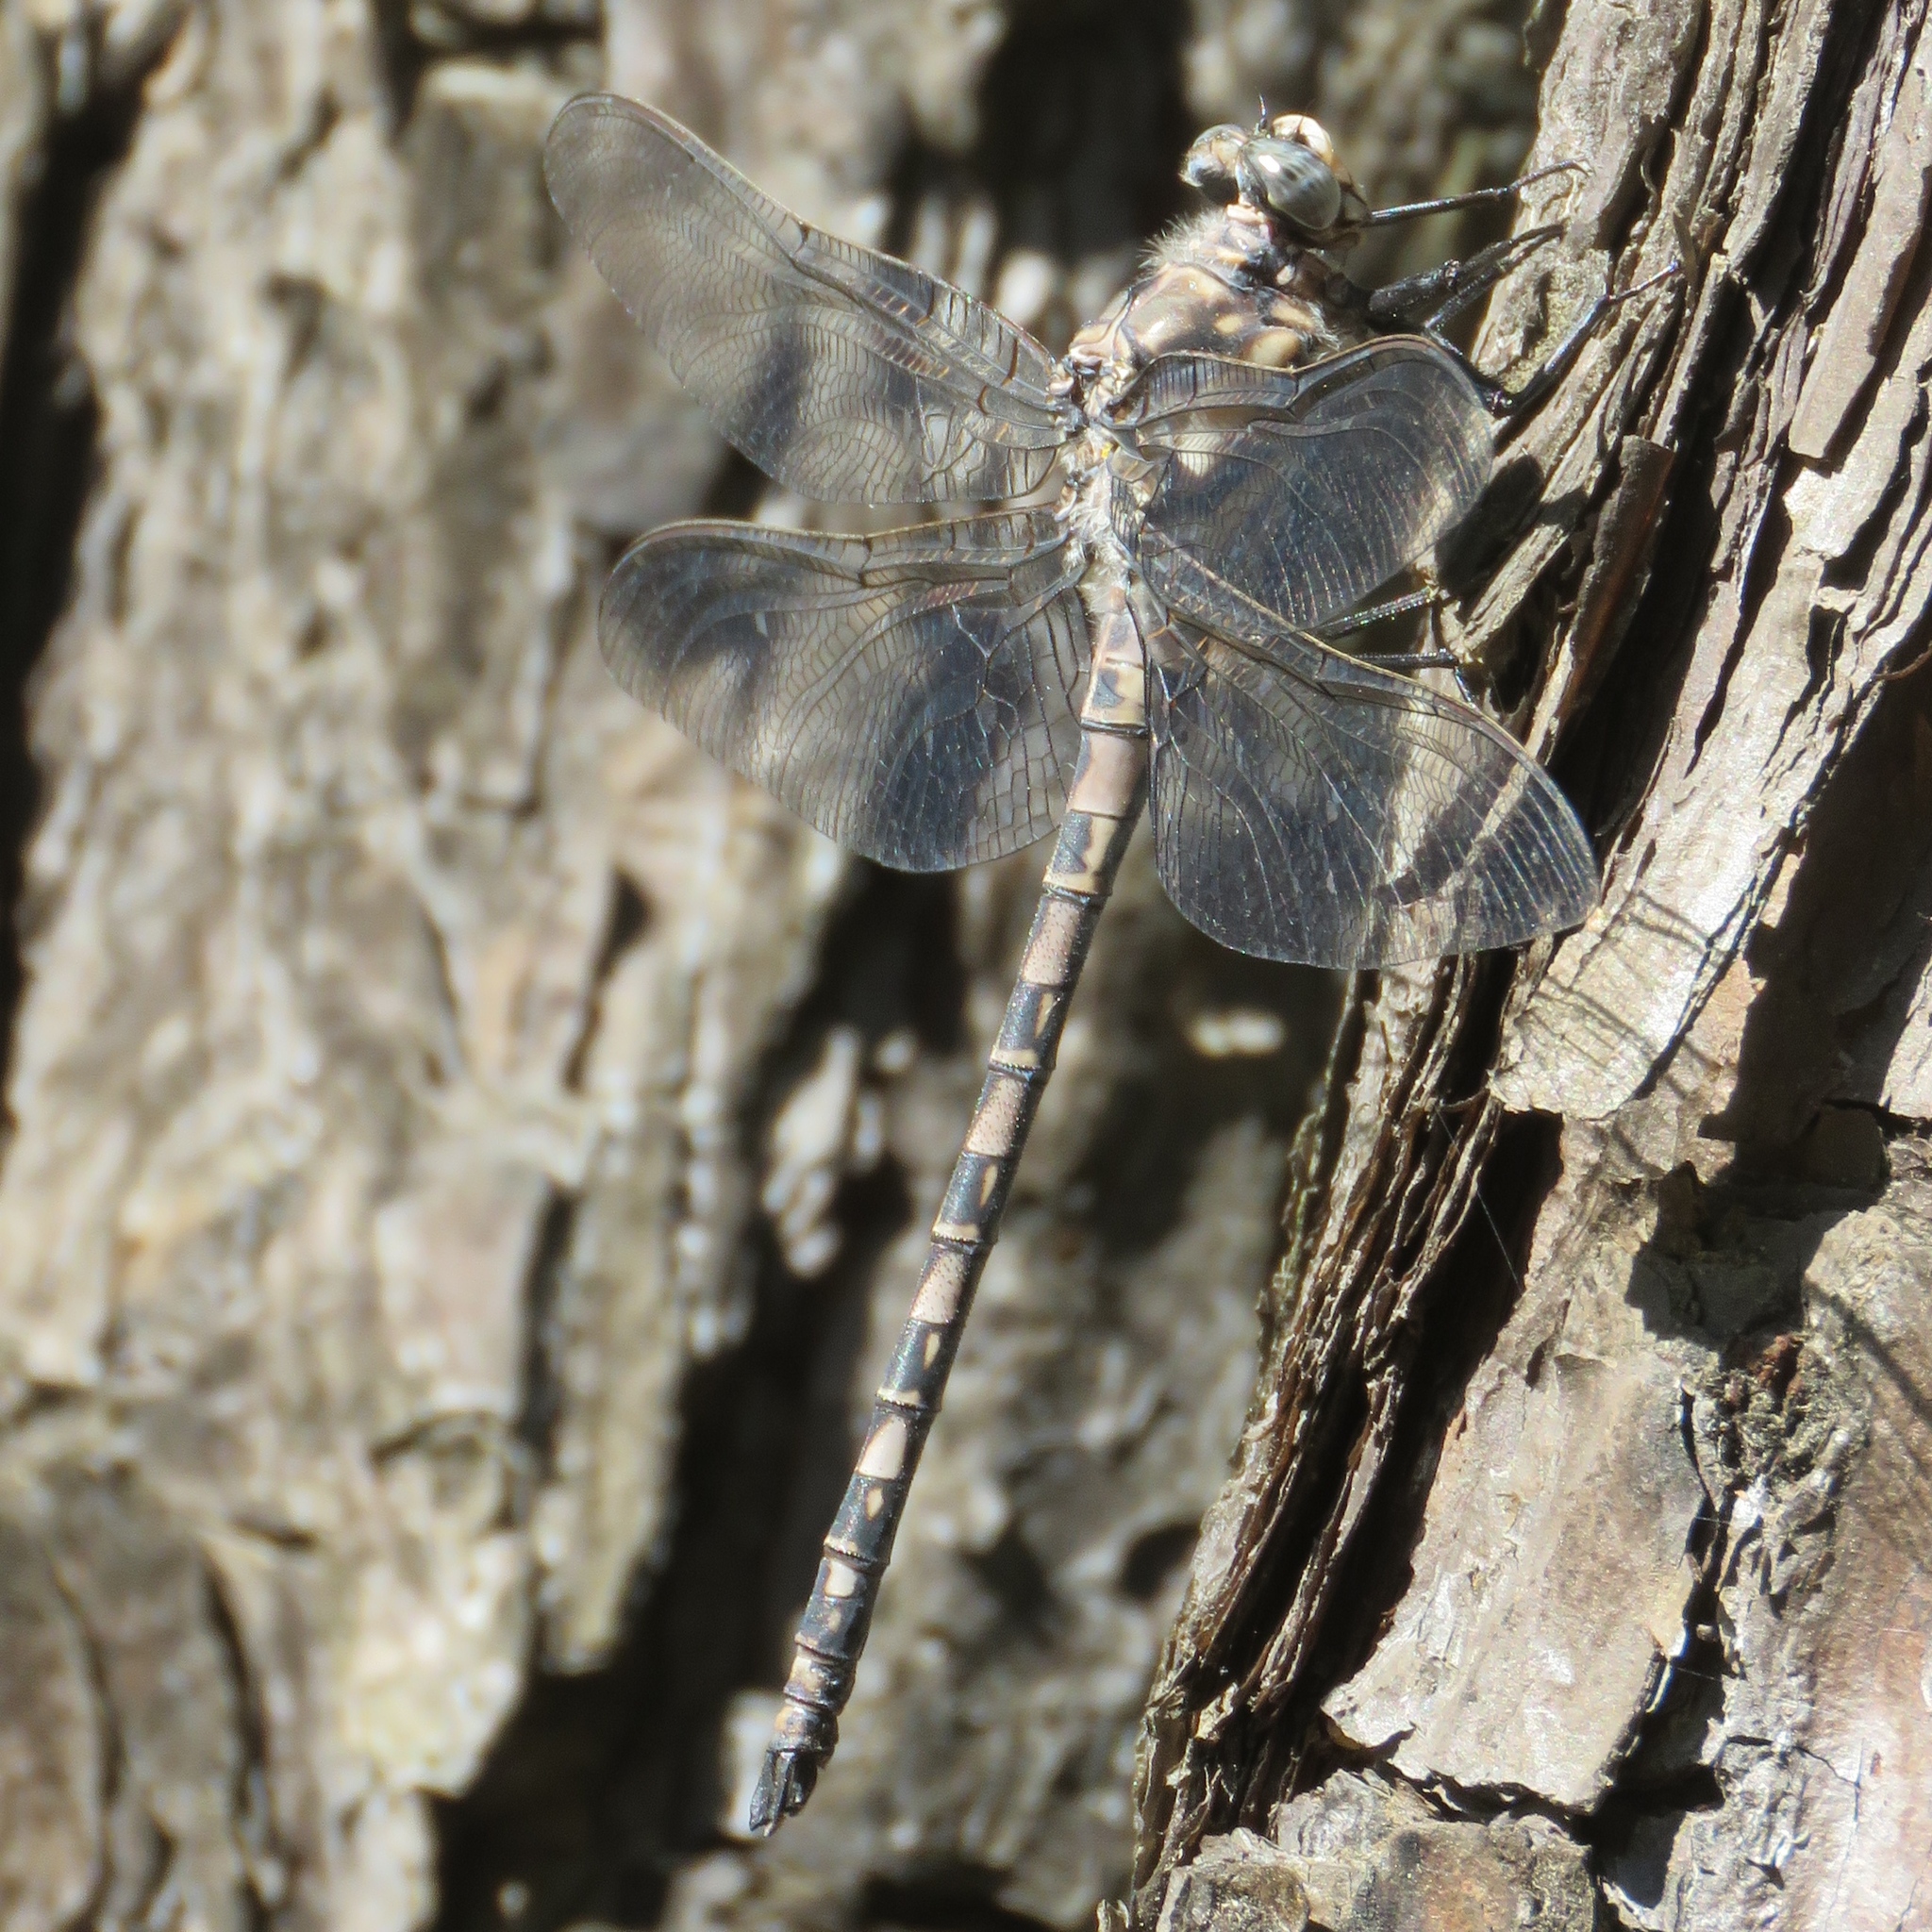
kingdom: Animalia
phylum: Arthropoda
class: Insecta
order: Odonata
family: Petaluridae
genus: Tachopteryx
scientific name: Tachopteryx thoreyi
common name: Gray petaltail
